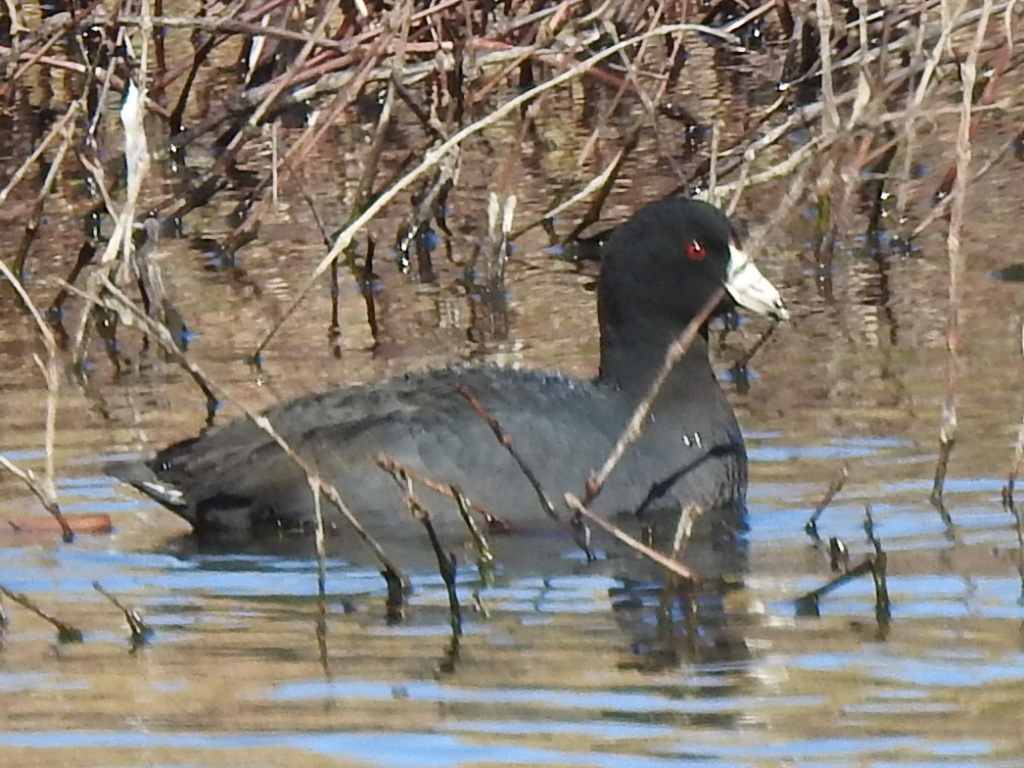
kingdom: Animalia
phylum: Chordata
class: Aves
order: Gruiformes
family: Rallidae
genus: Fulica
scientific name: Fulica americana
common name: American coot
